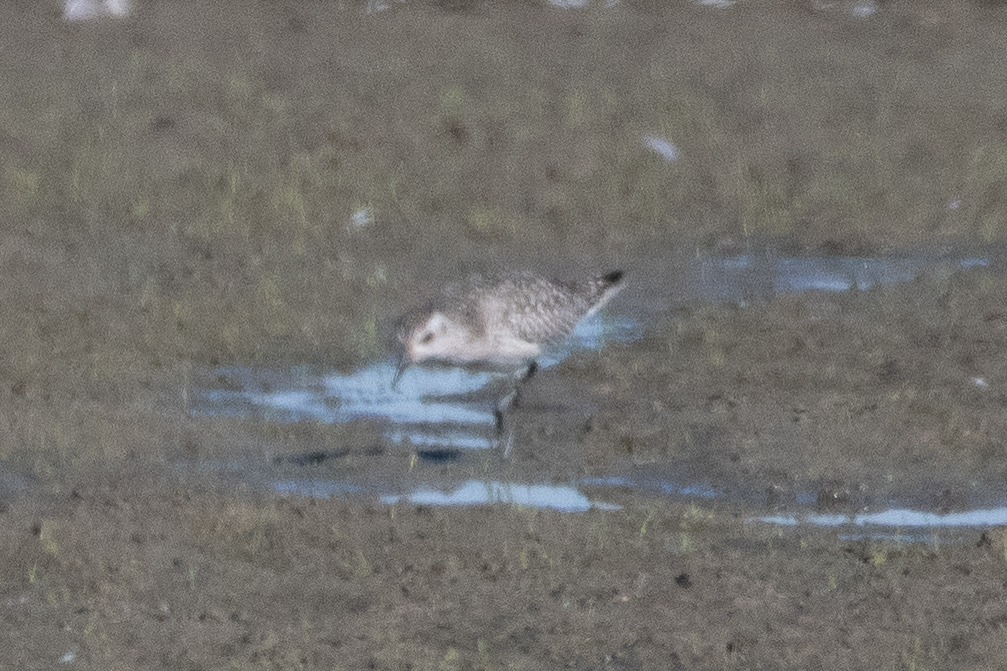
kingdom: Animalia
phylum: Chordata
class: Aves
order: Charadriiformes
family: Charadriidae
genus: Pluvialis
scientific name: Pluvialis squatarola
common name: Grey plover
